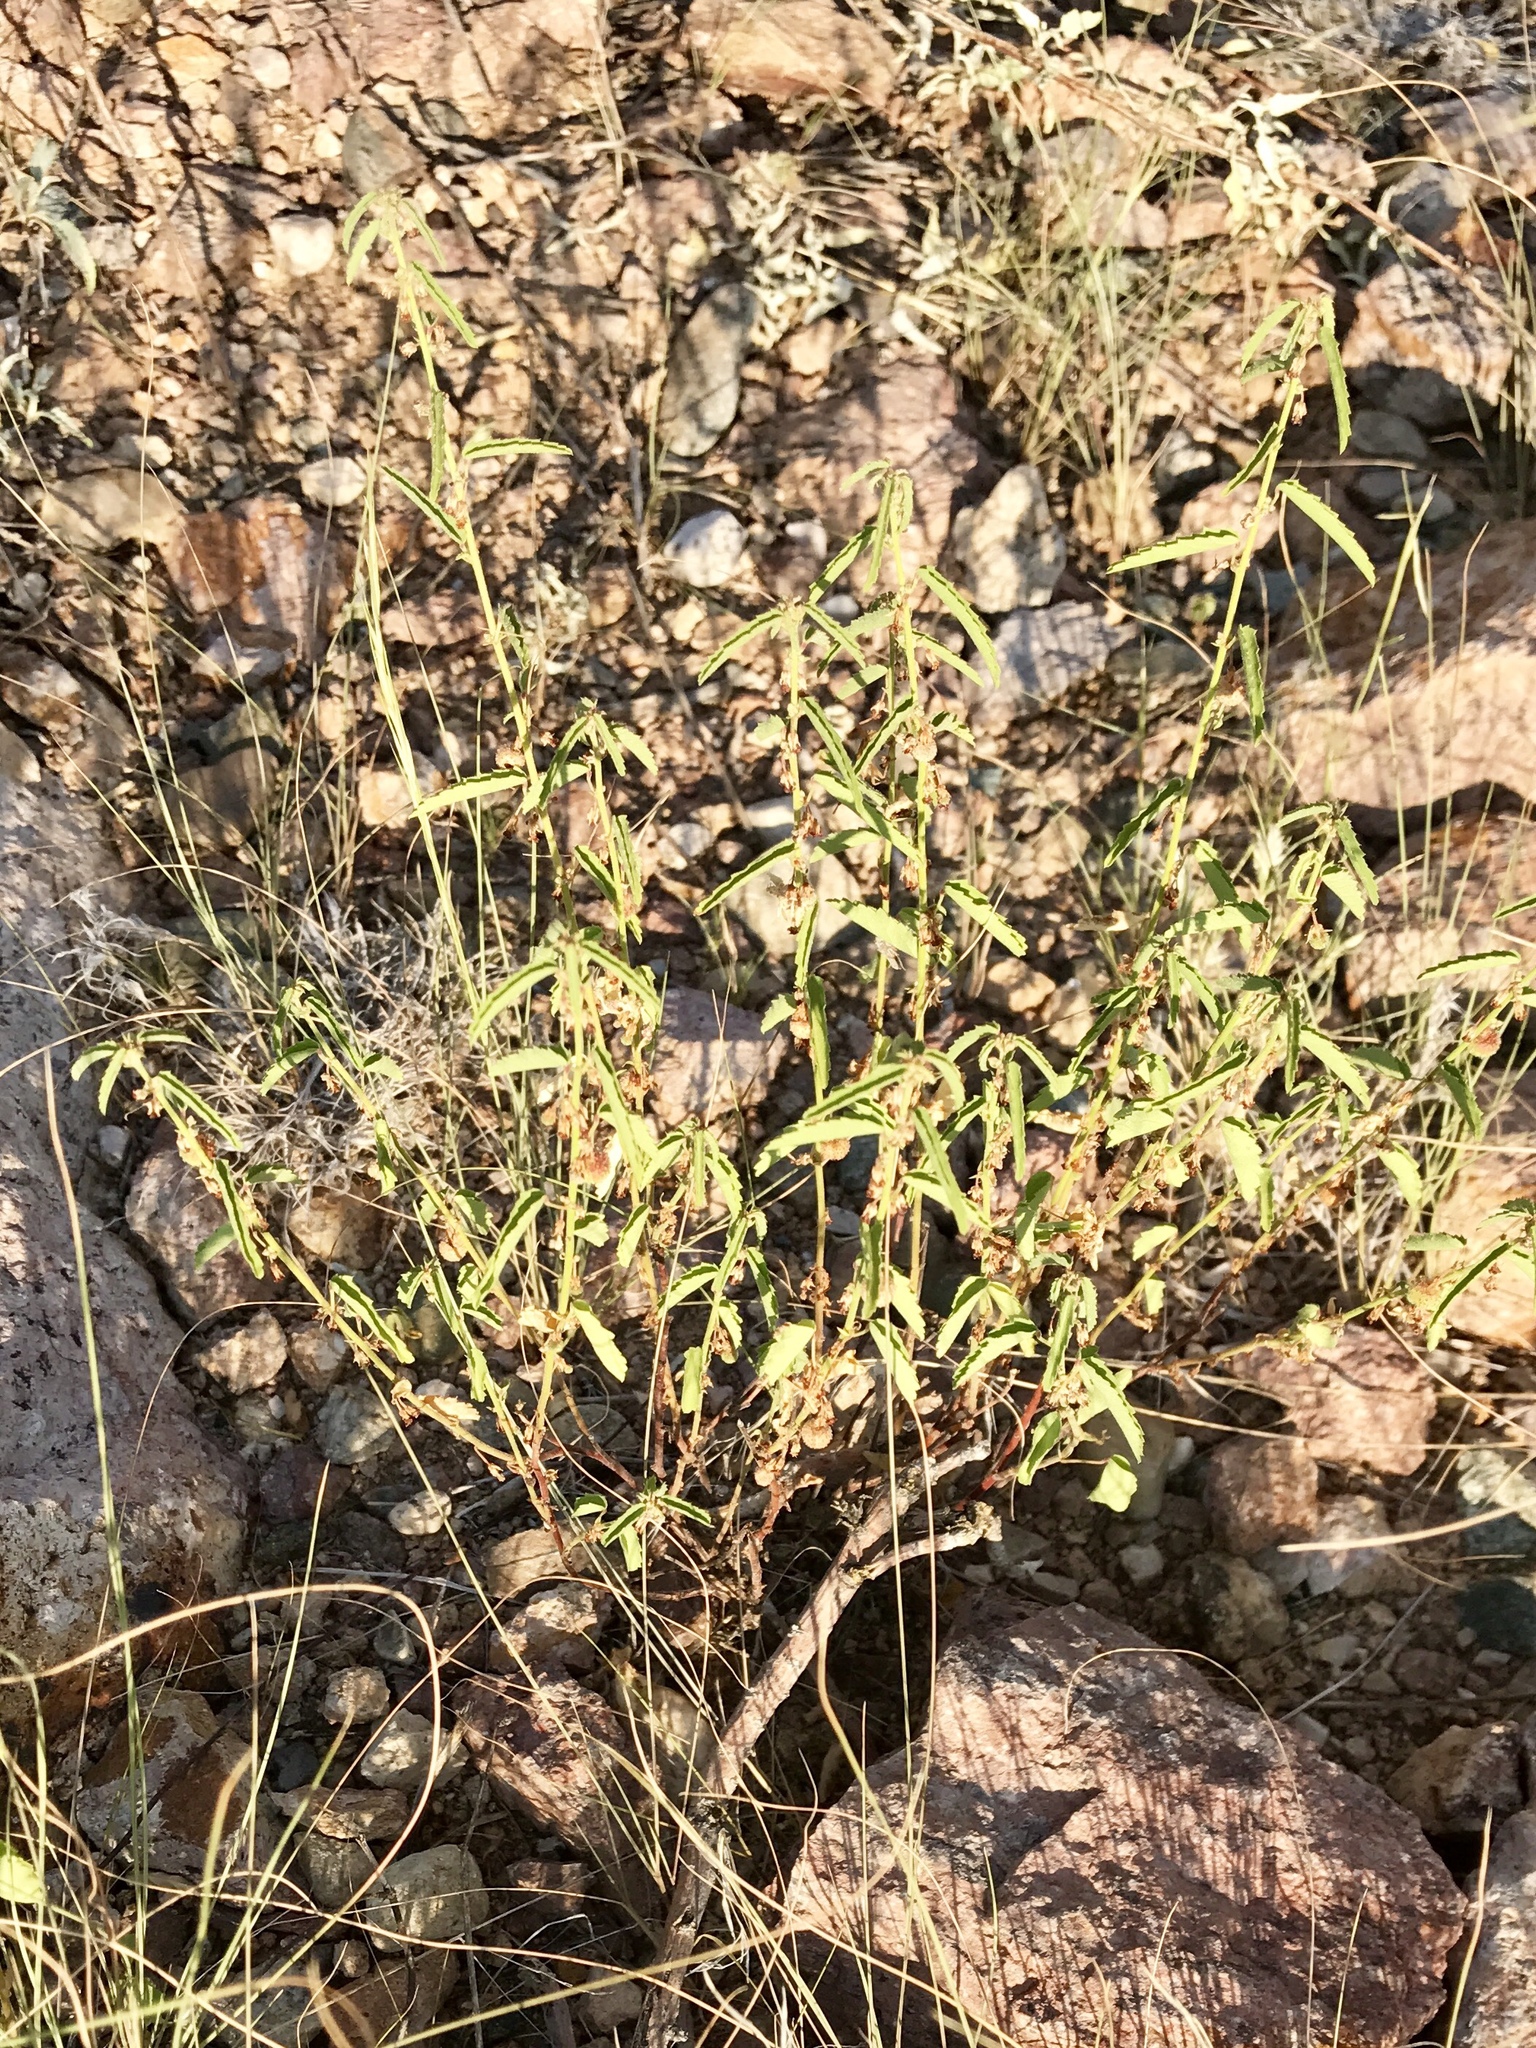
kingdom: Plantae
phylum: Tracheophyta
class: Magnoliopsida
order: Malvales
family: Malvaceae
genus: Ayenia
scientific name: Ayenia filiformis
